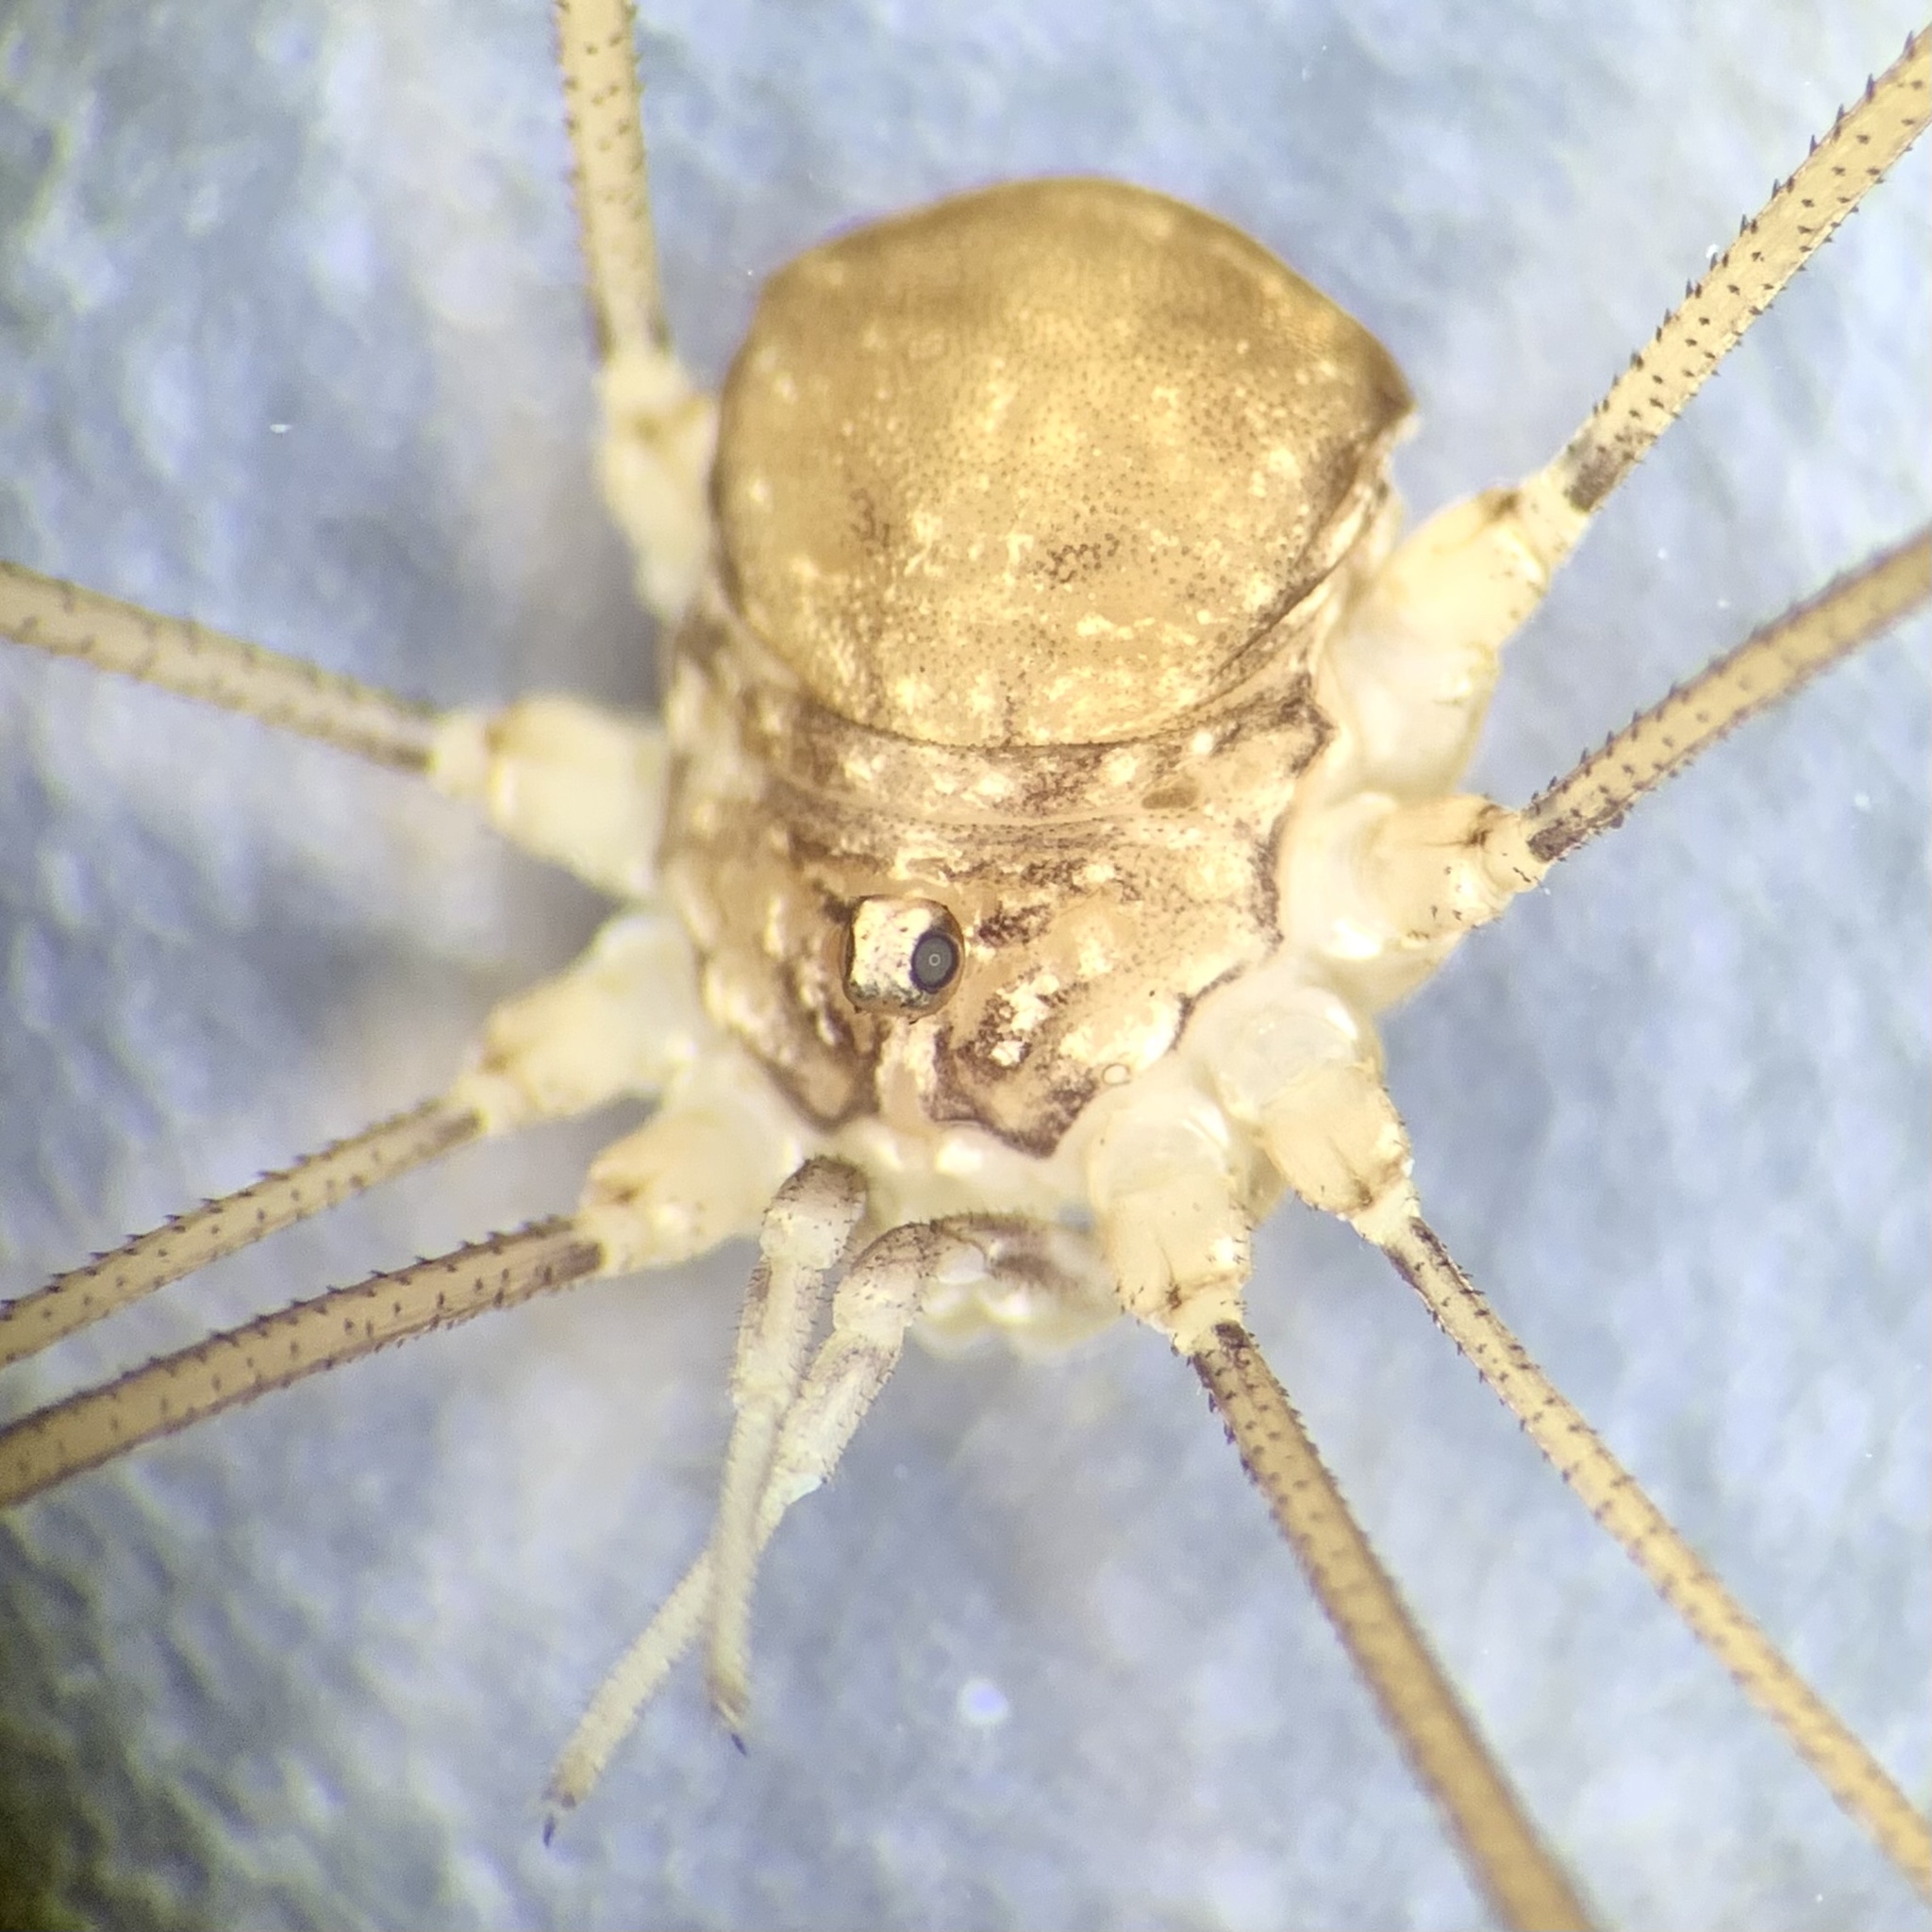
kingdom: Animalia
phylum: Arthropoda
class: Arachnida
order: Opiliones
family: Sclerosomatidae
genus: Nelima
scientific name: Nelima doriae
